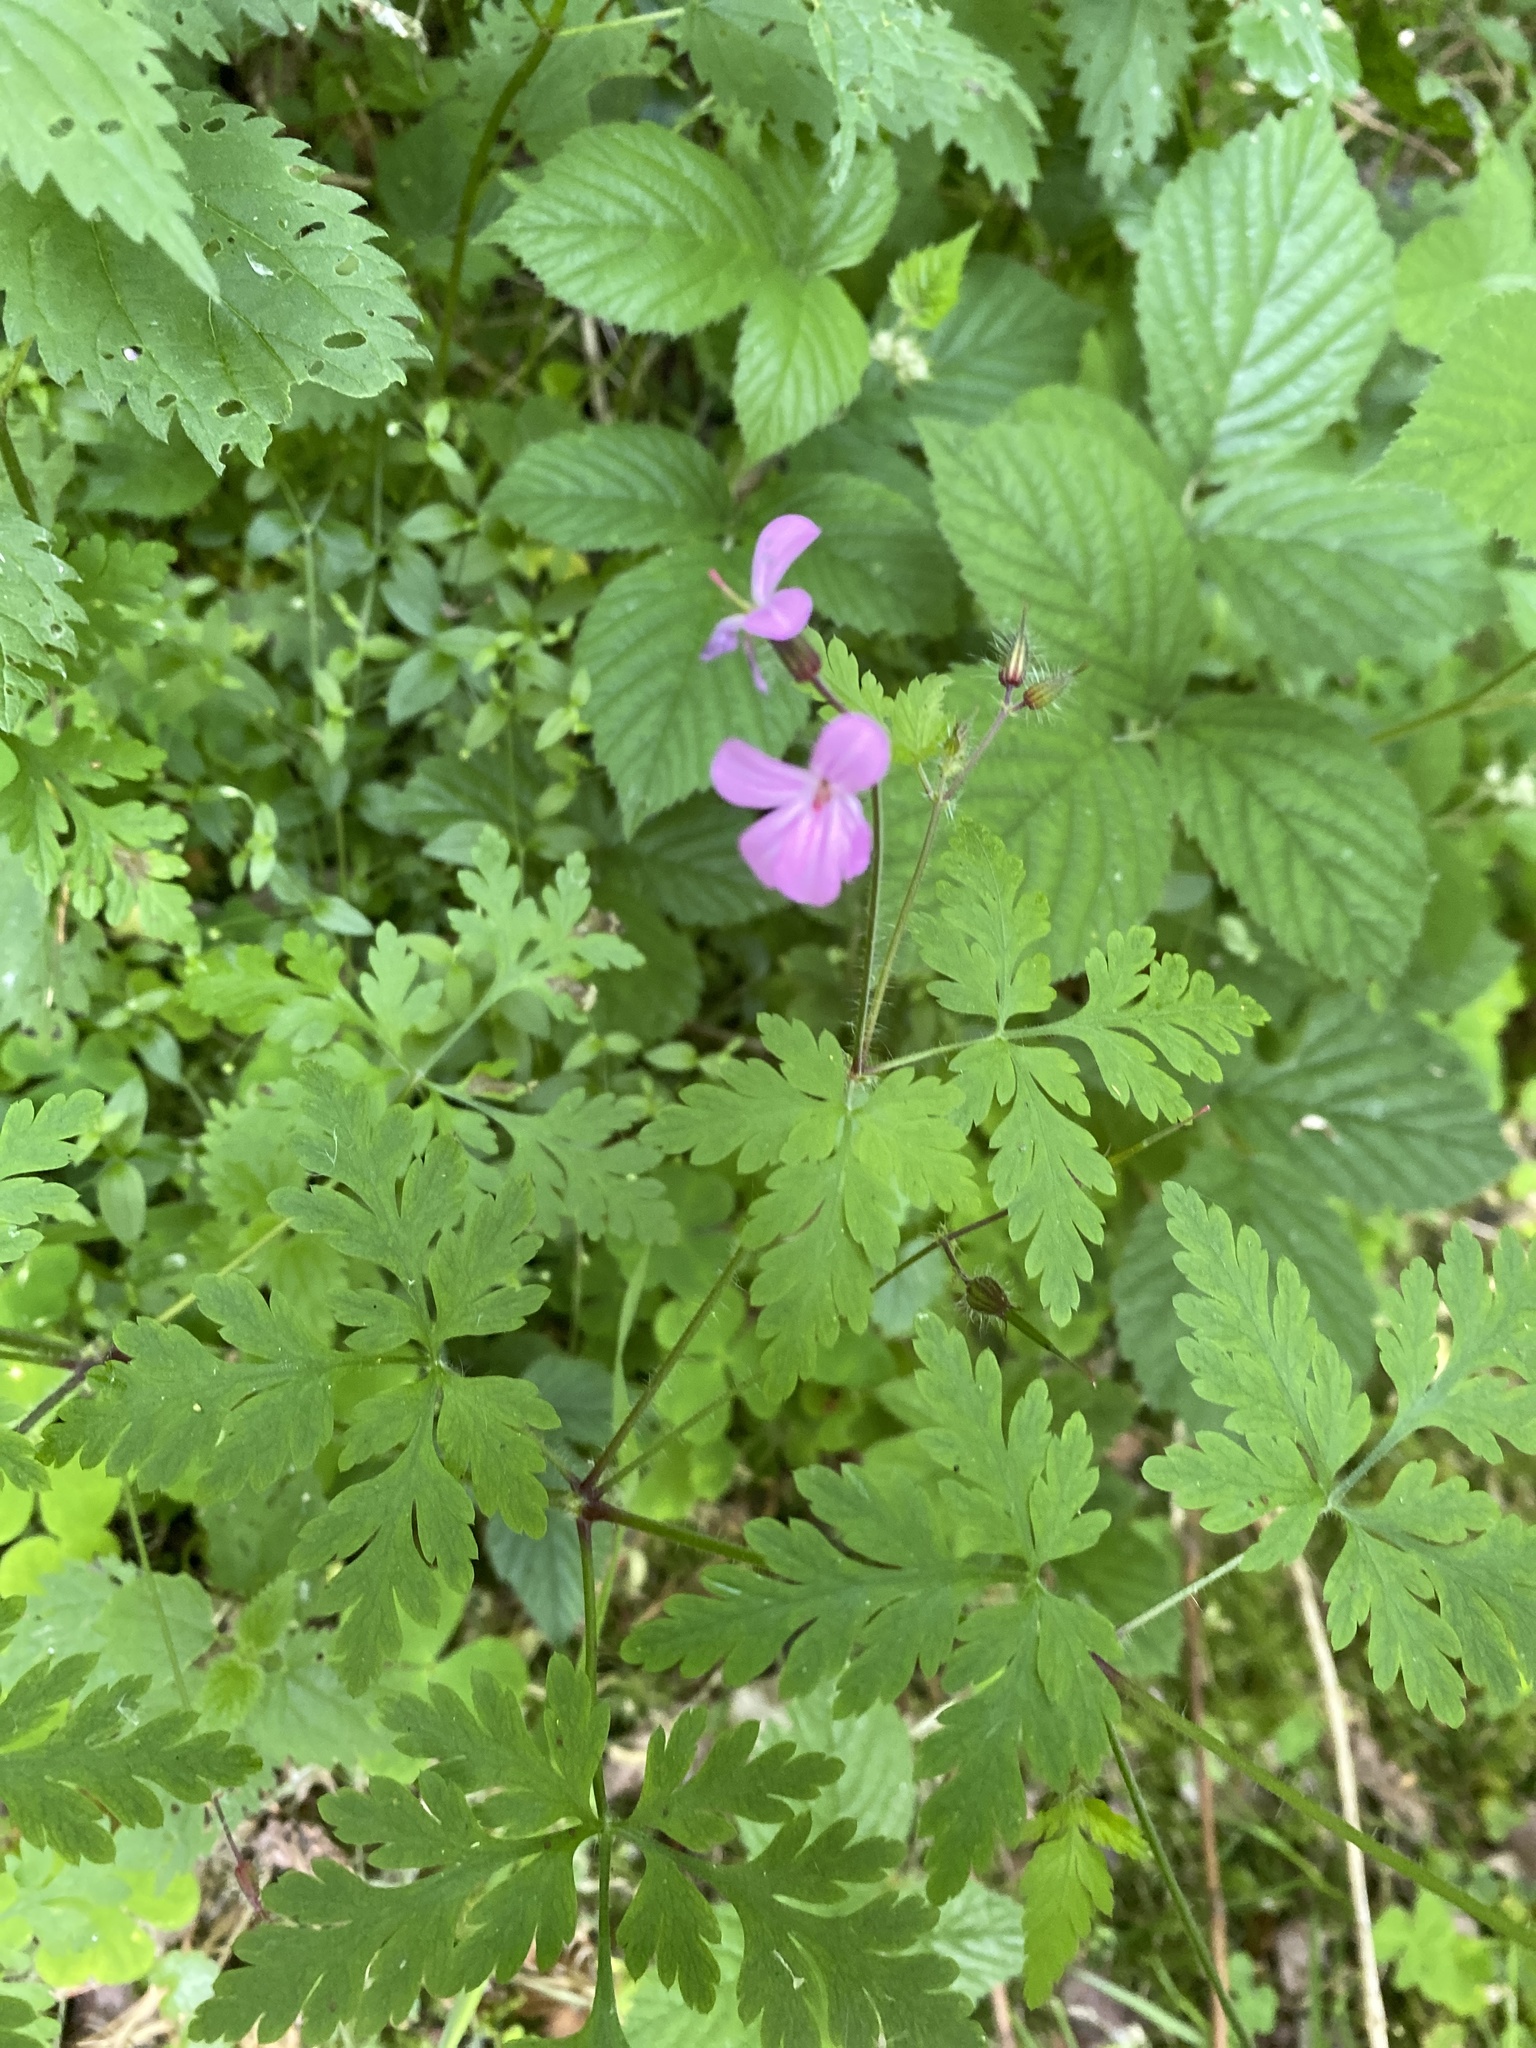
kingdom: Plantae
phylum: Tracheophyta
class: Magnoliopsida
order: Geraniales
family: Geraniaceae
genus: Geranium
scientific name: Geranium robertianum
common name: Herb-robert
